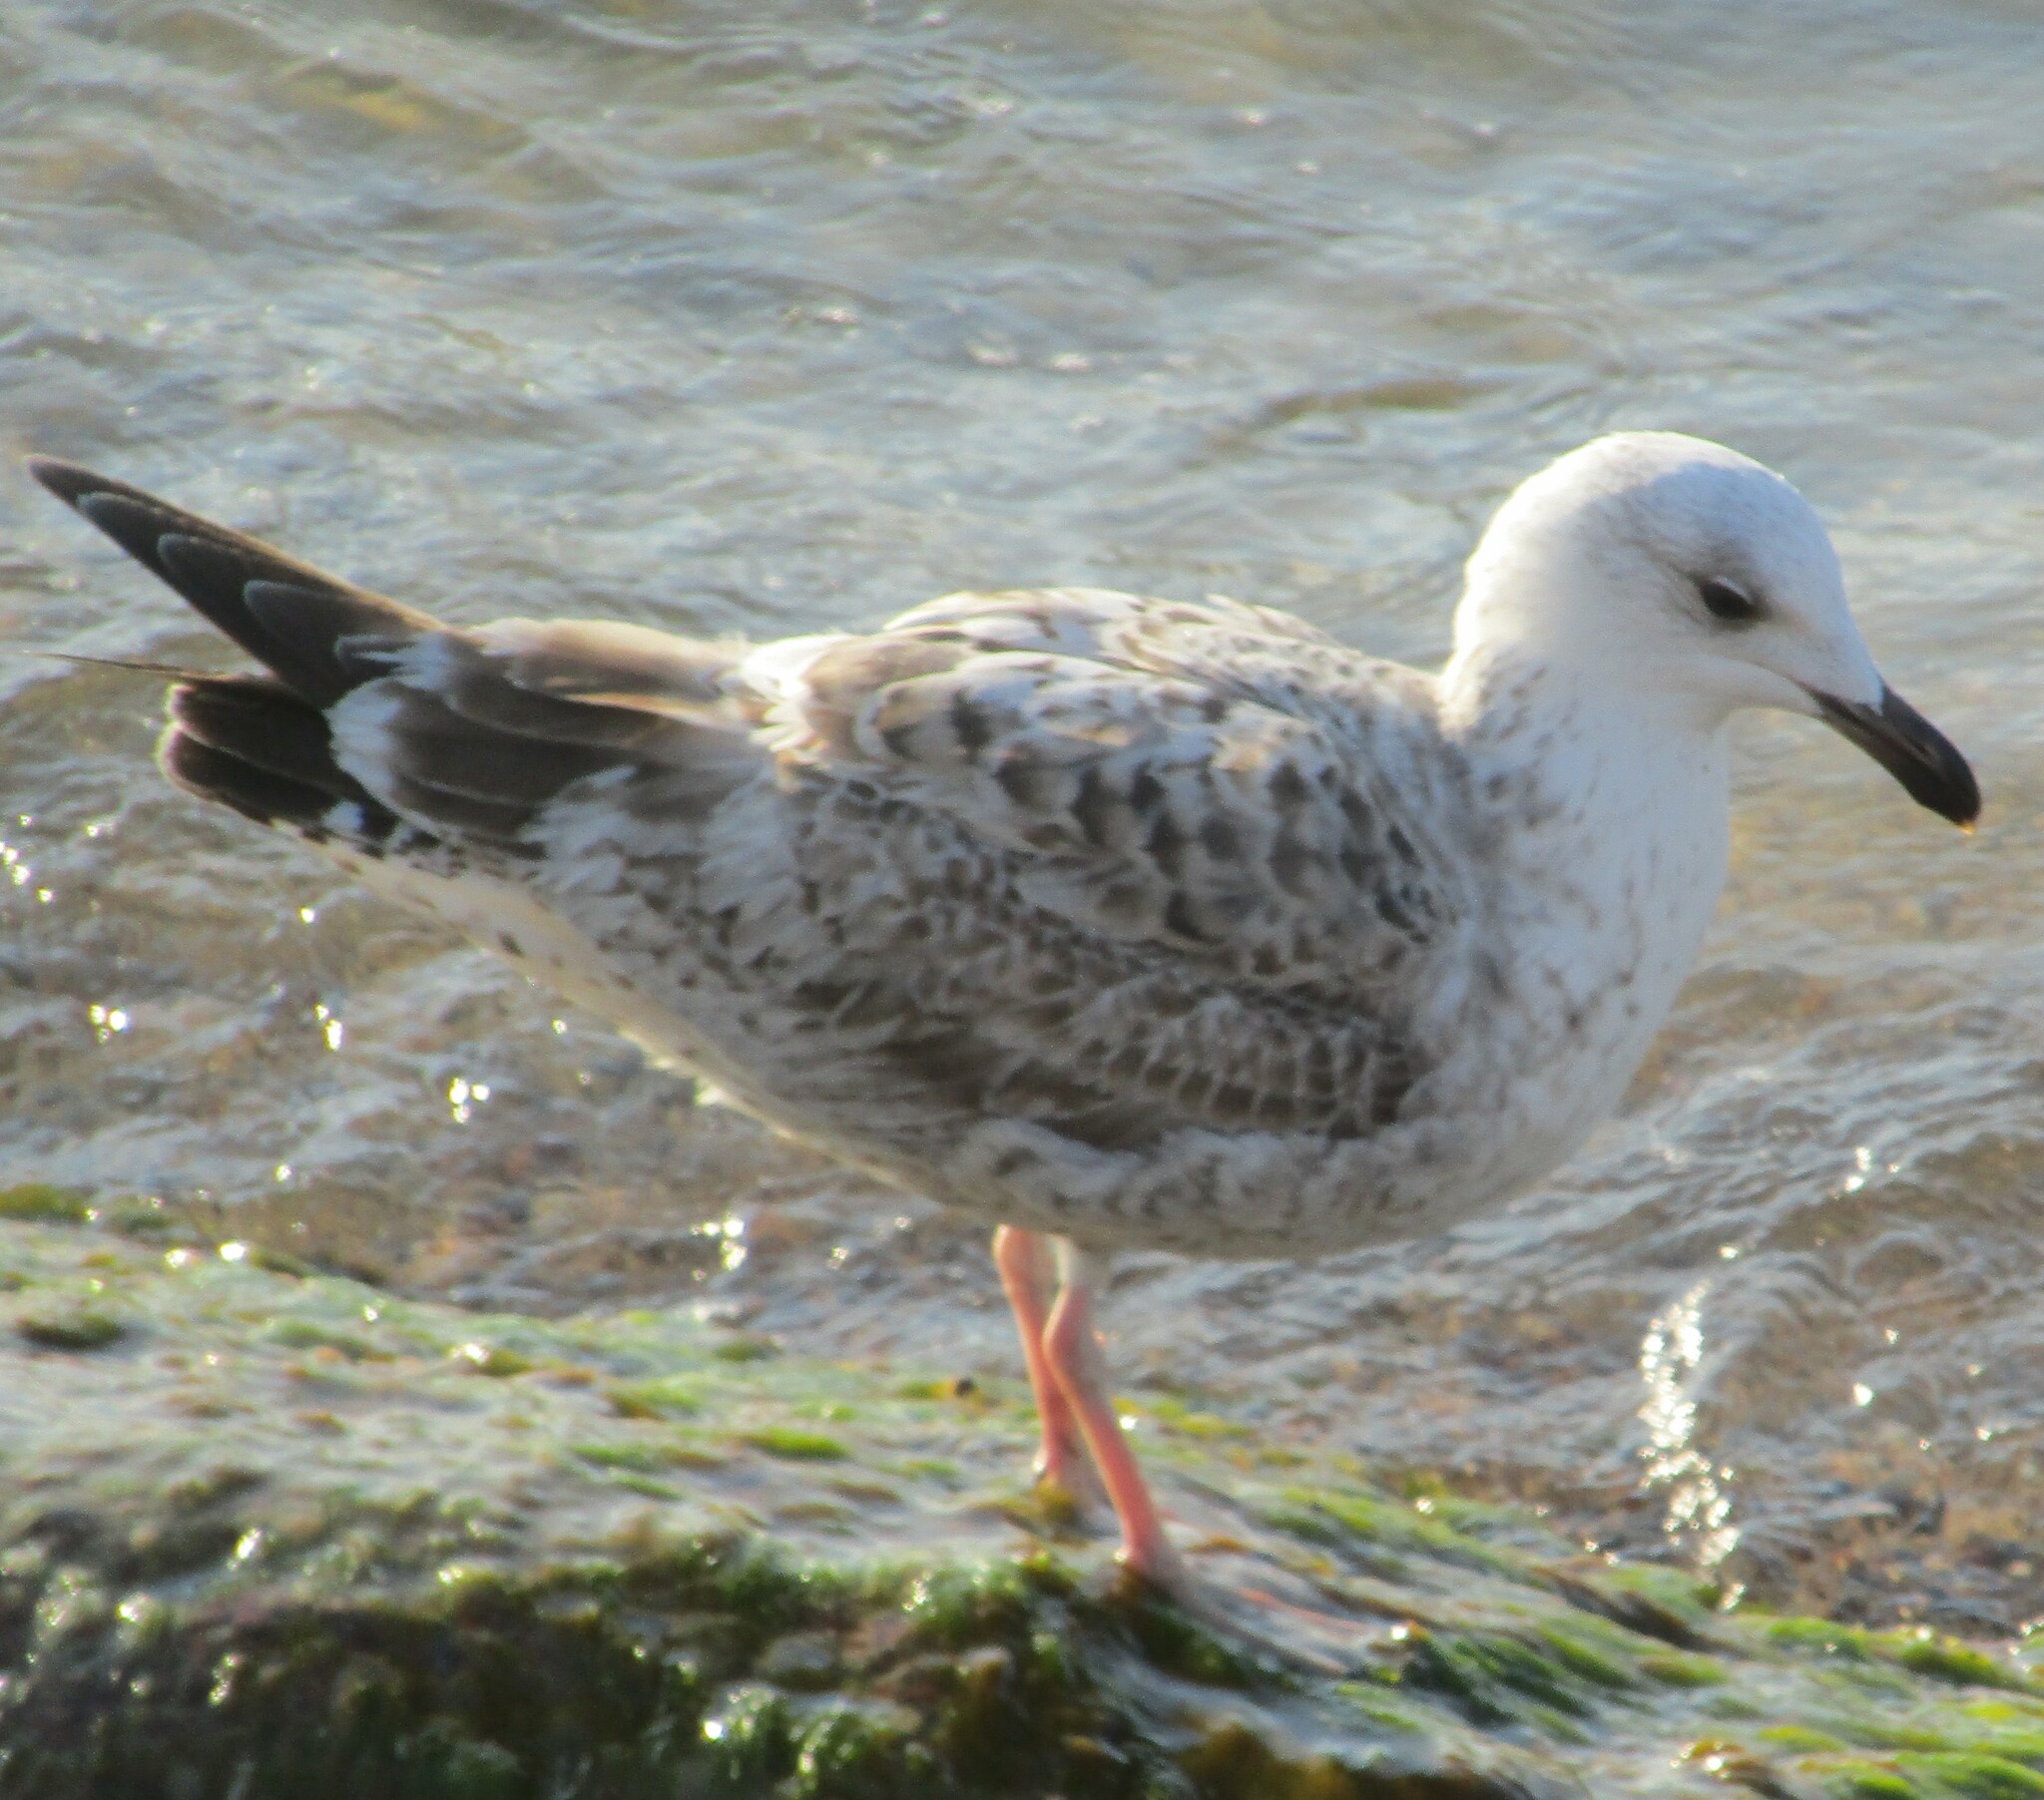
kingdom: Animalia
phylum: Chordata
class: Aves
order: Charadriiformes
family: Laridae
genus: Larus
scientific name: Larus argentatus
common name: Herring gull
